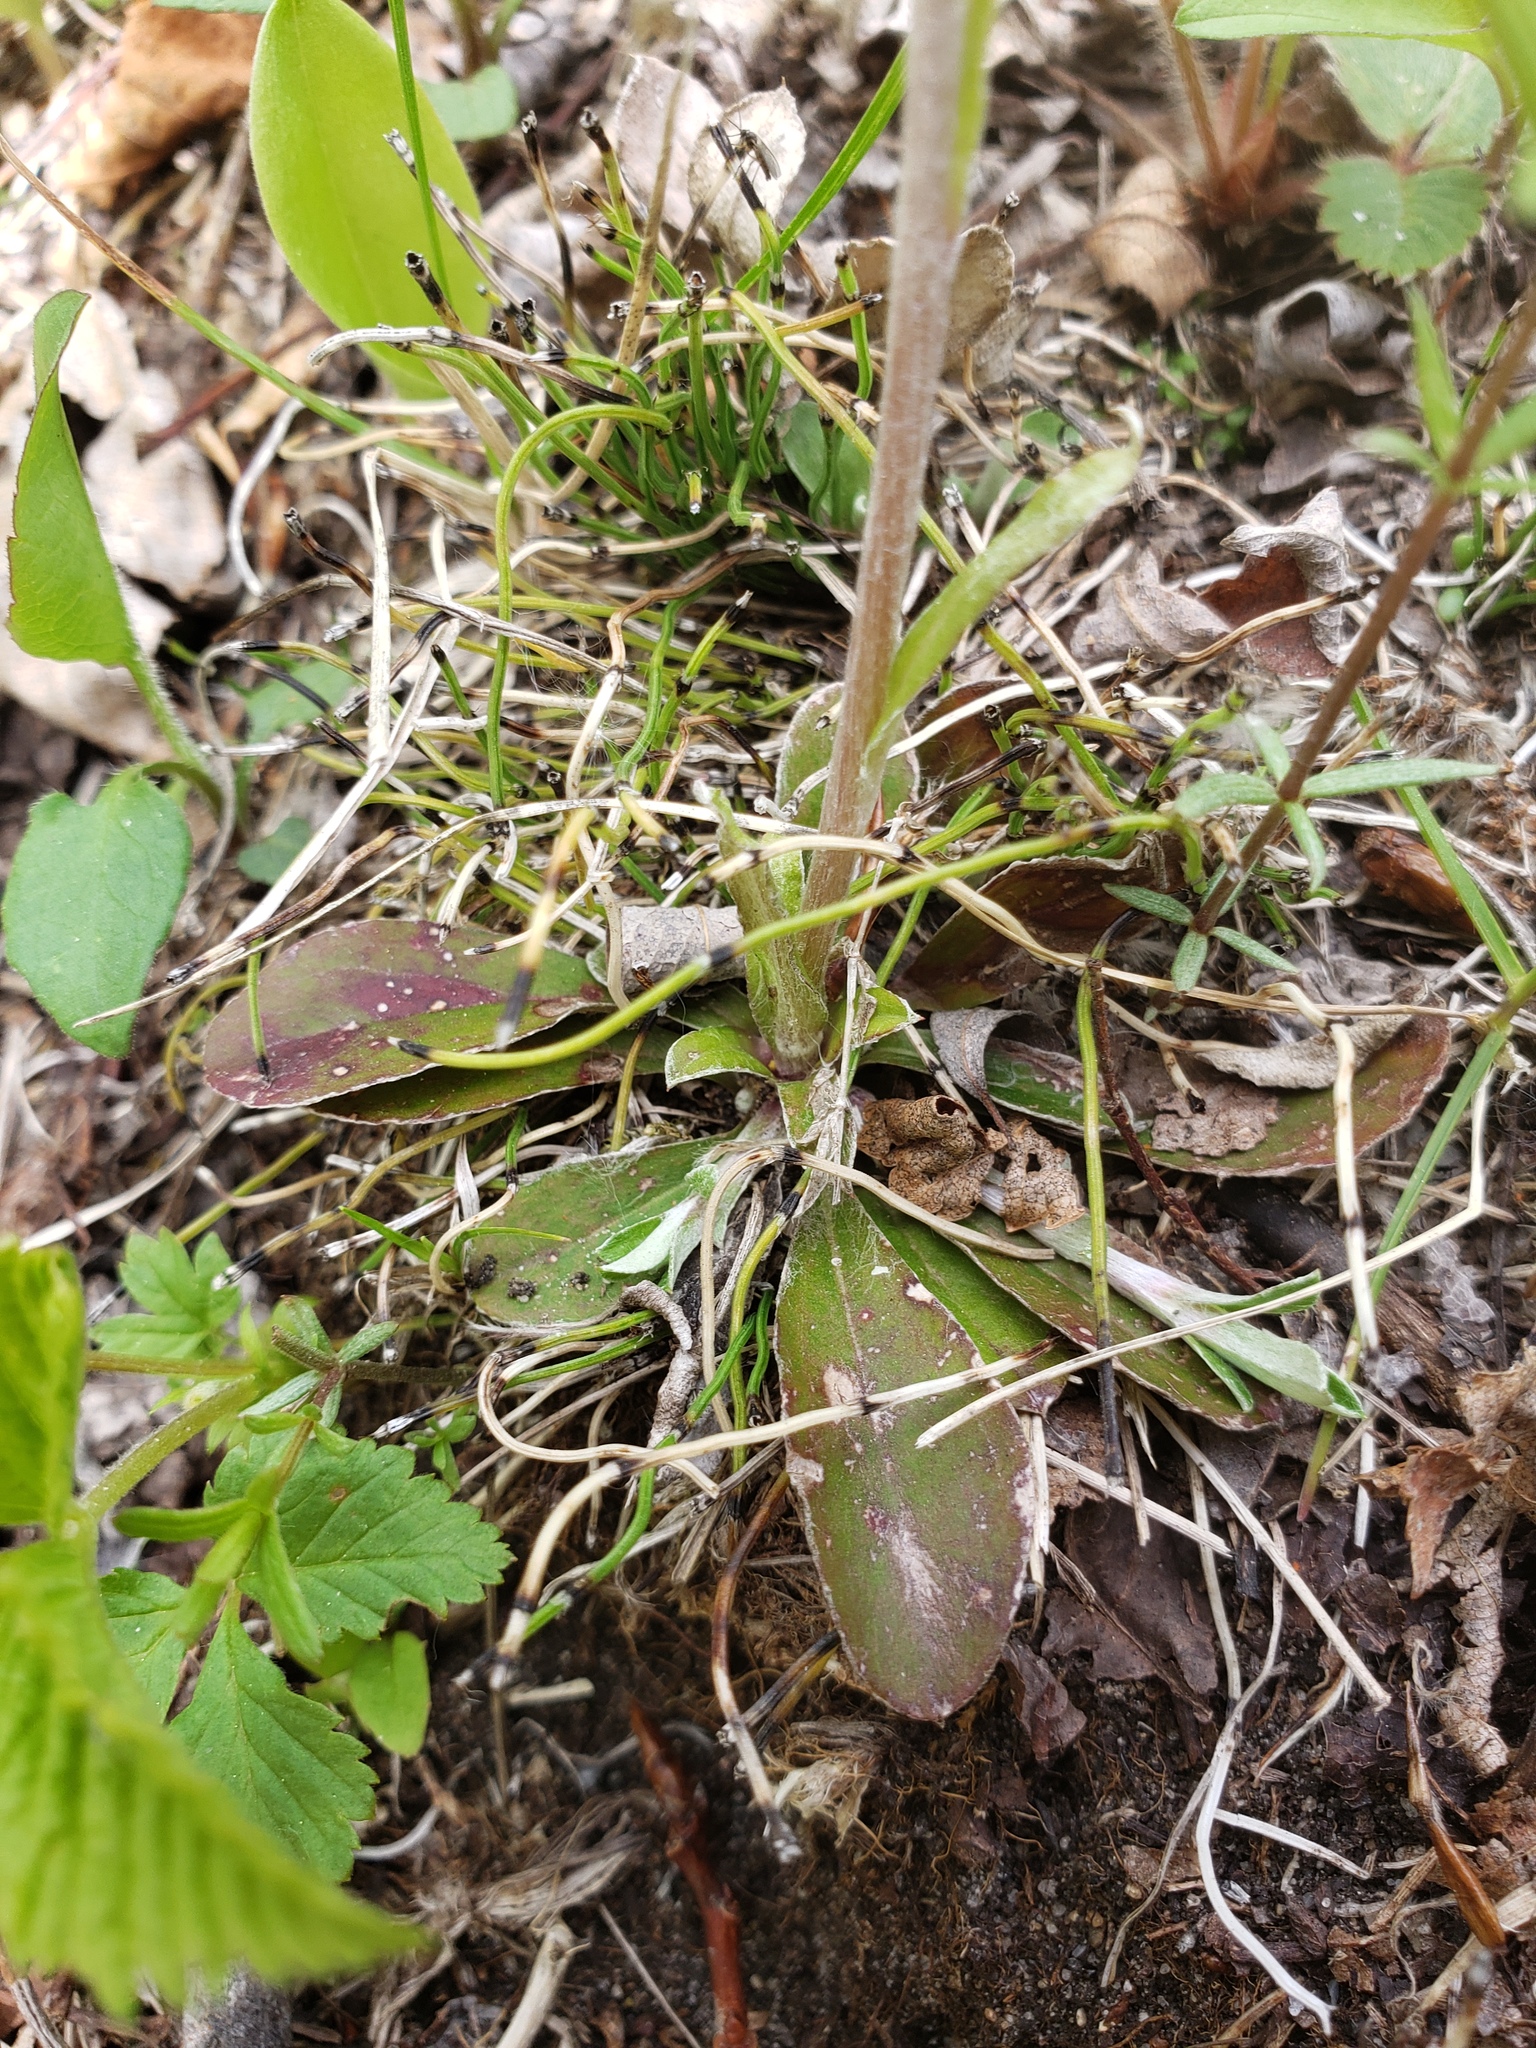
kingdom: Plantae
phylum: Tracheophyta
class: Magnoliopsida
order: Asterales
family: Asteraceae
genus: Antennaria
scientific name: Antennaria neglecta
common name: Field pussytoes
